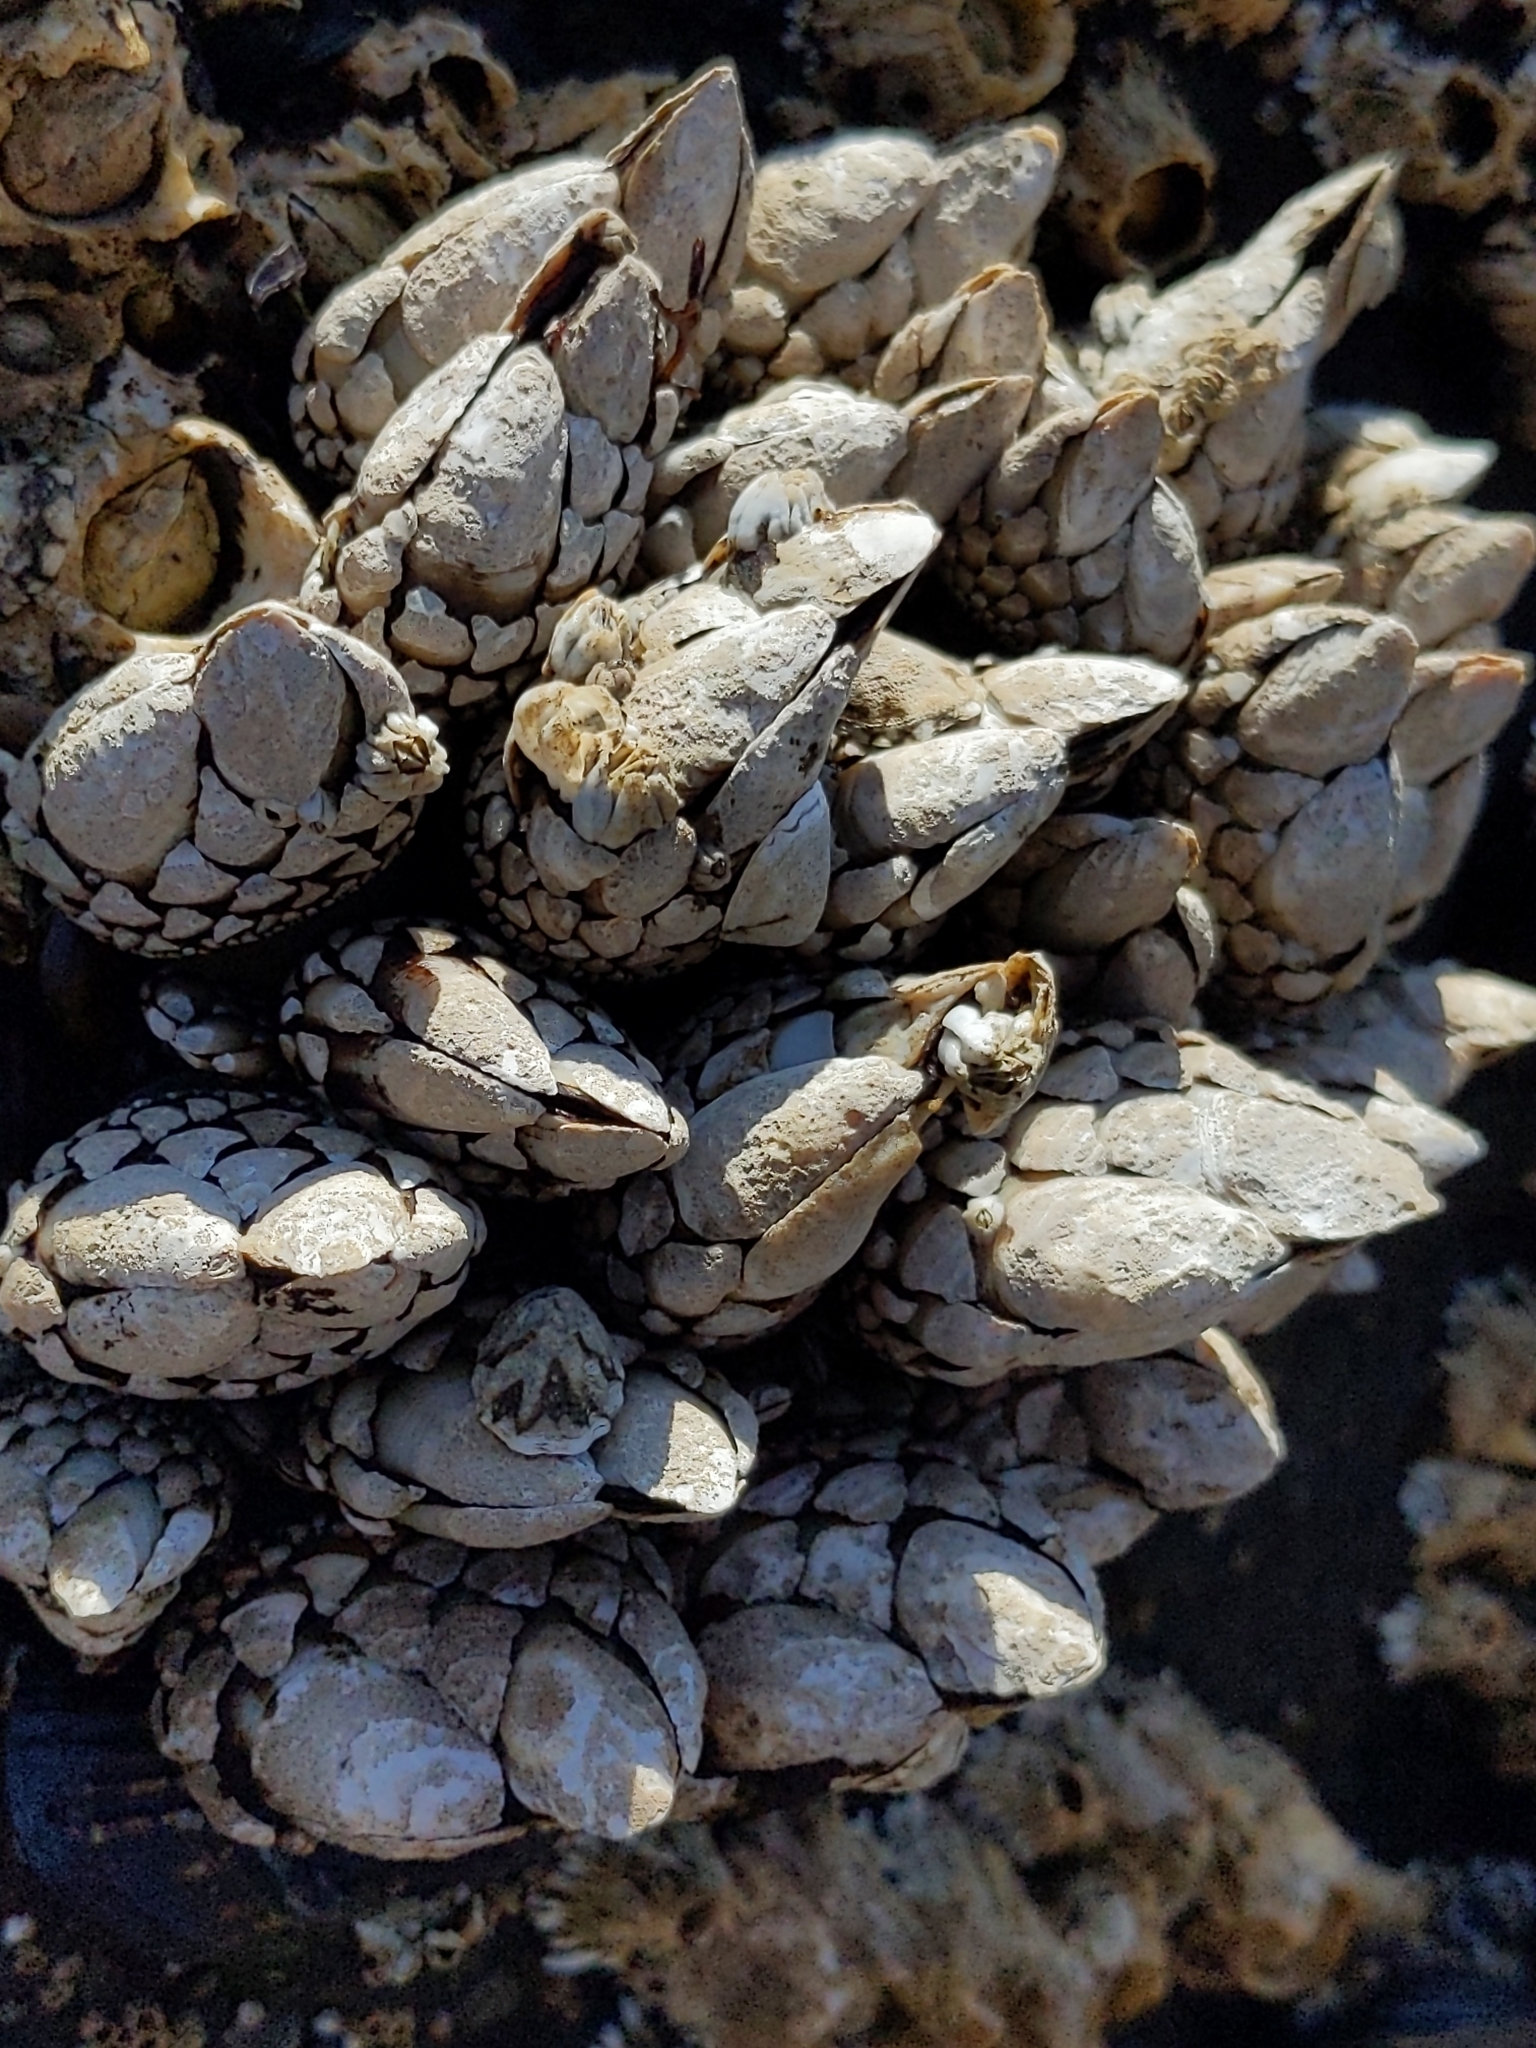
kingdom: Animalia
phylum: Arthropoda
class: Maxillopoda
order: Pedunculata
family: Pollicipedidae
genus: Pollicipes
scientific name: Pollicipes polymerus
